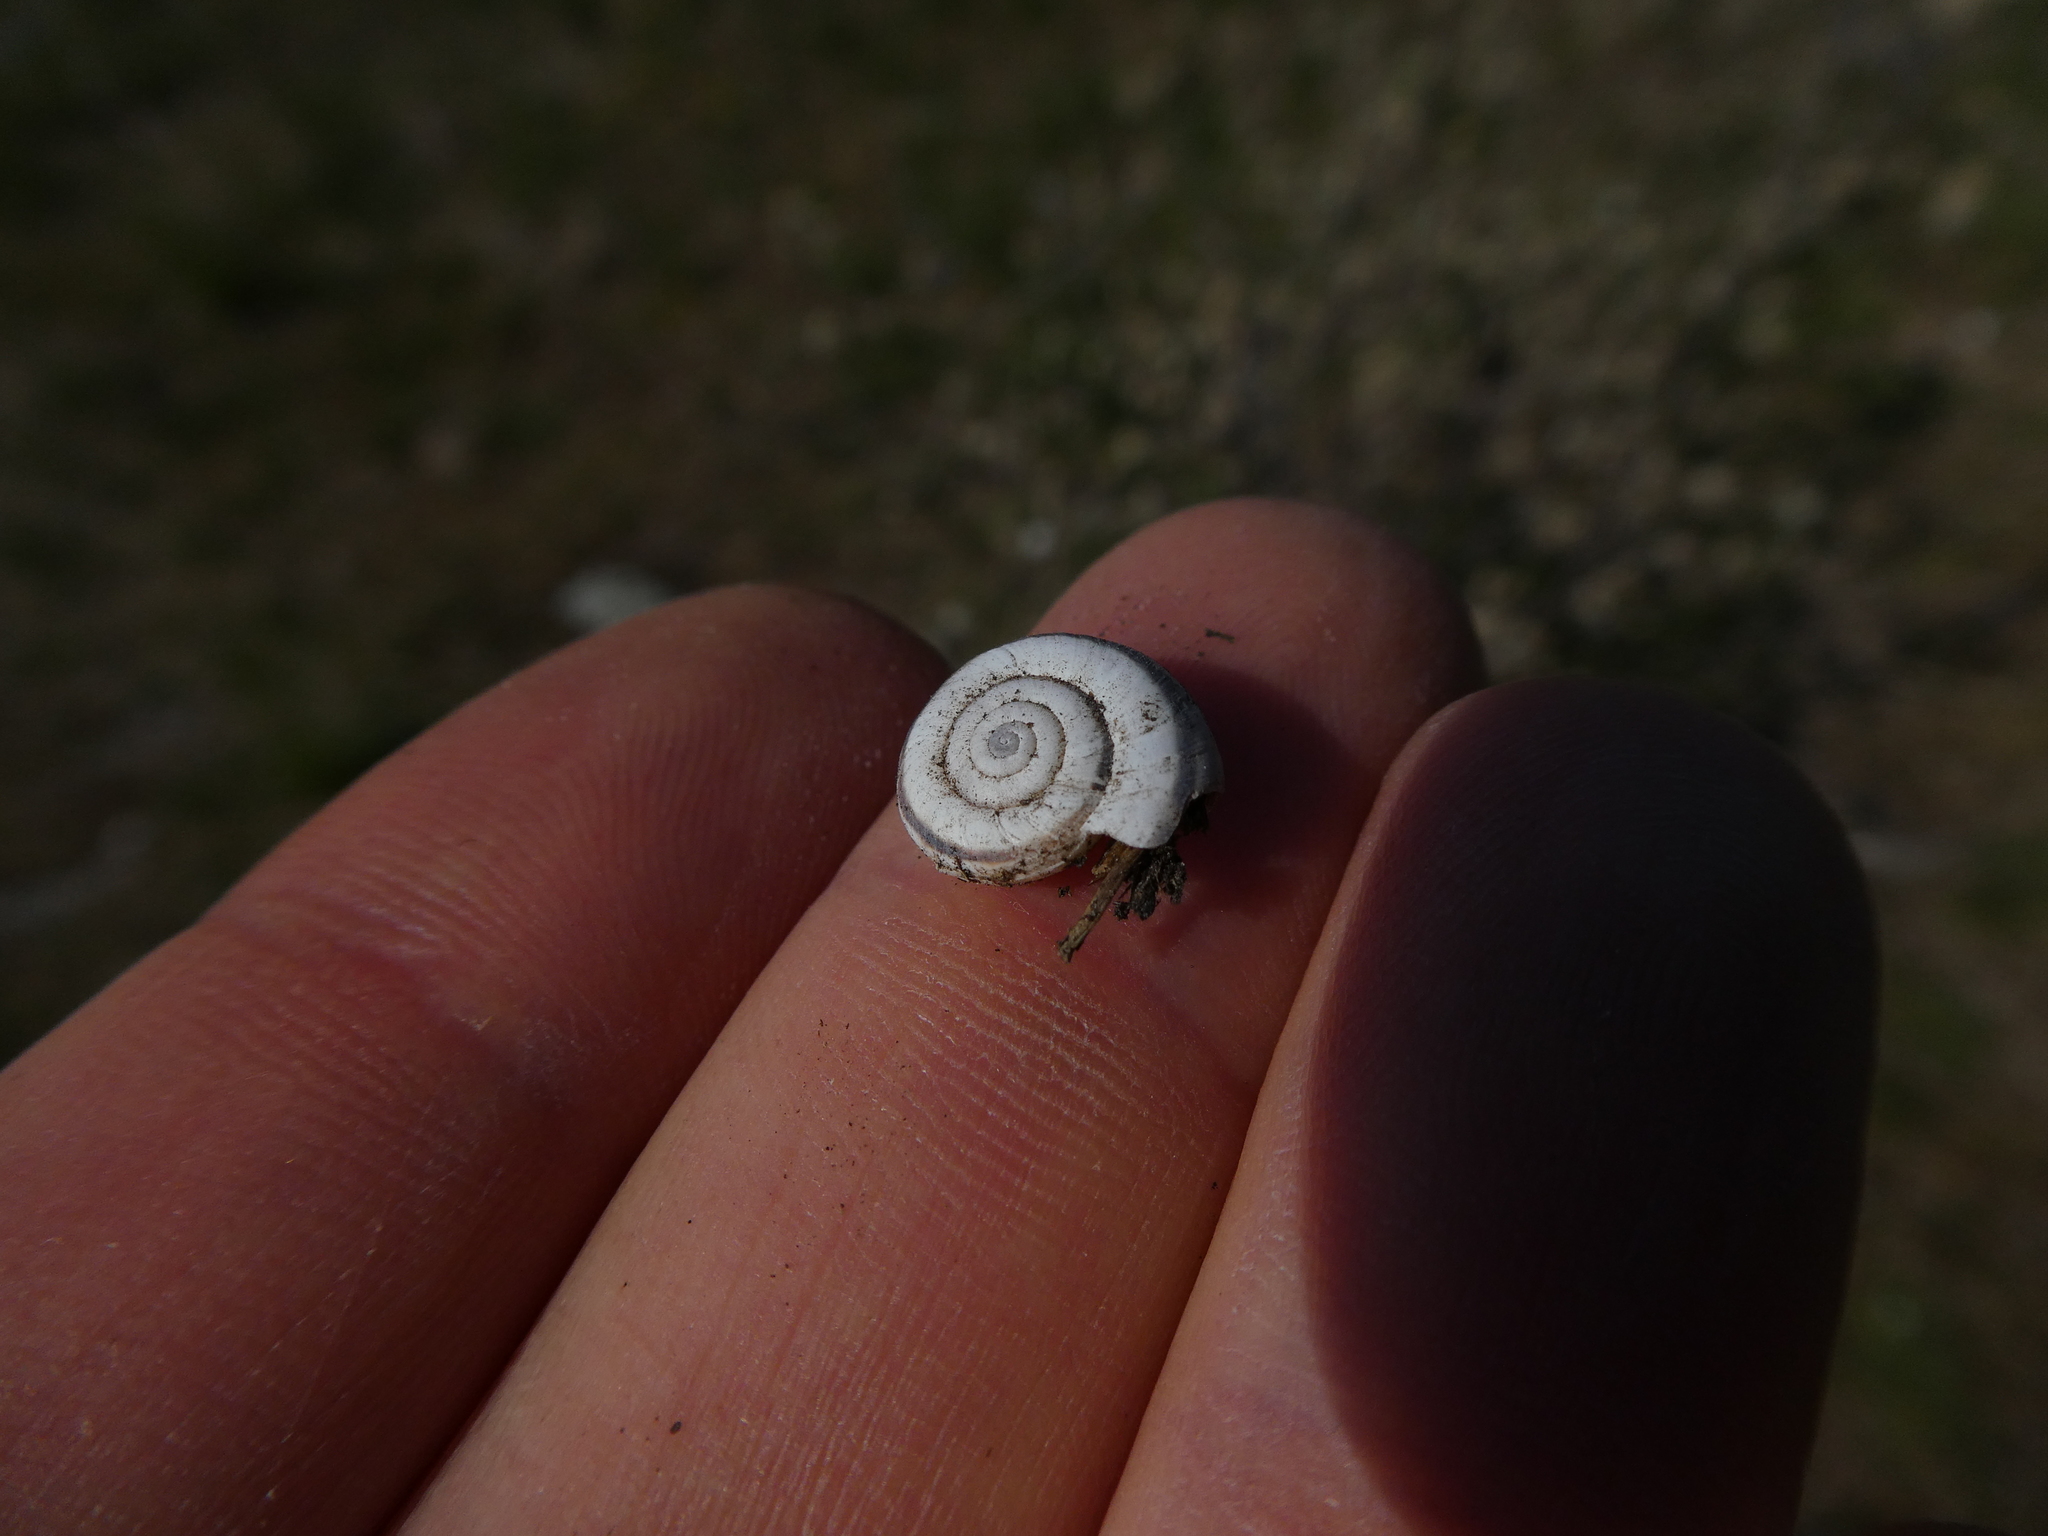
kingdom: Animalia
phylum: Mollusca
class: Gastropoda
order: Stylommatophora
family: Geomitridae
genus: Xerolenta
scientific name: Xerolenta obvia
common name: White heath snail
